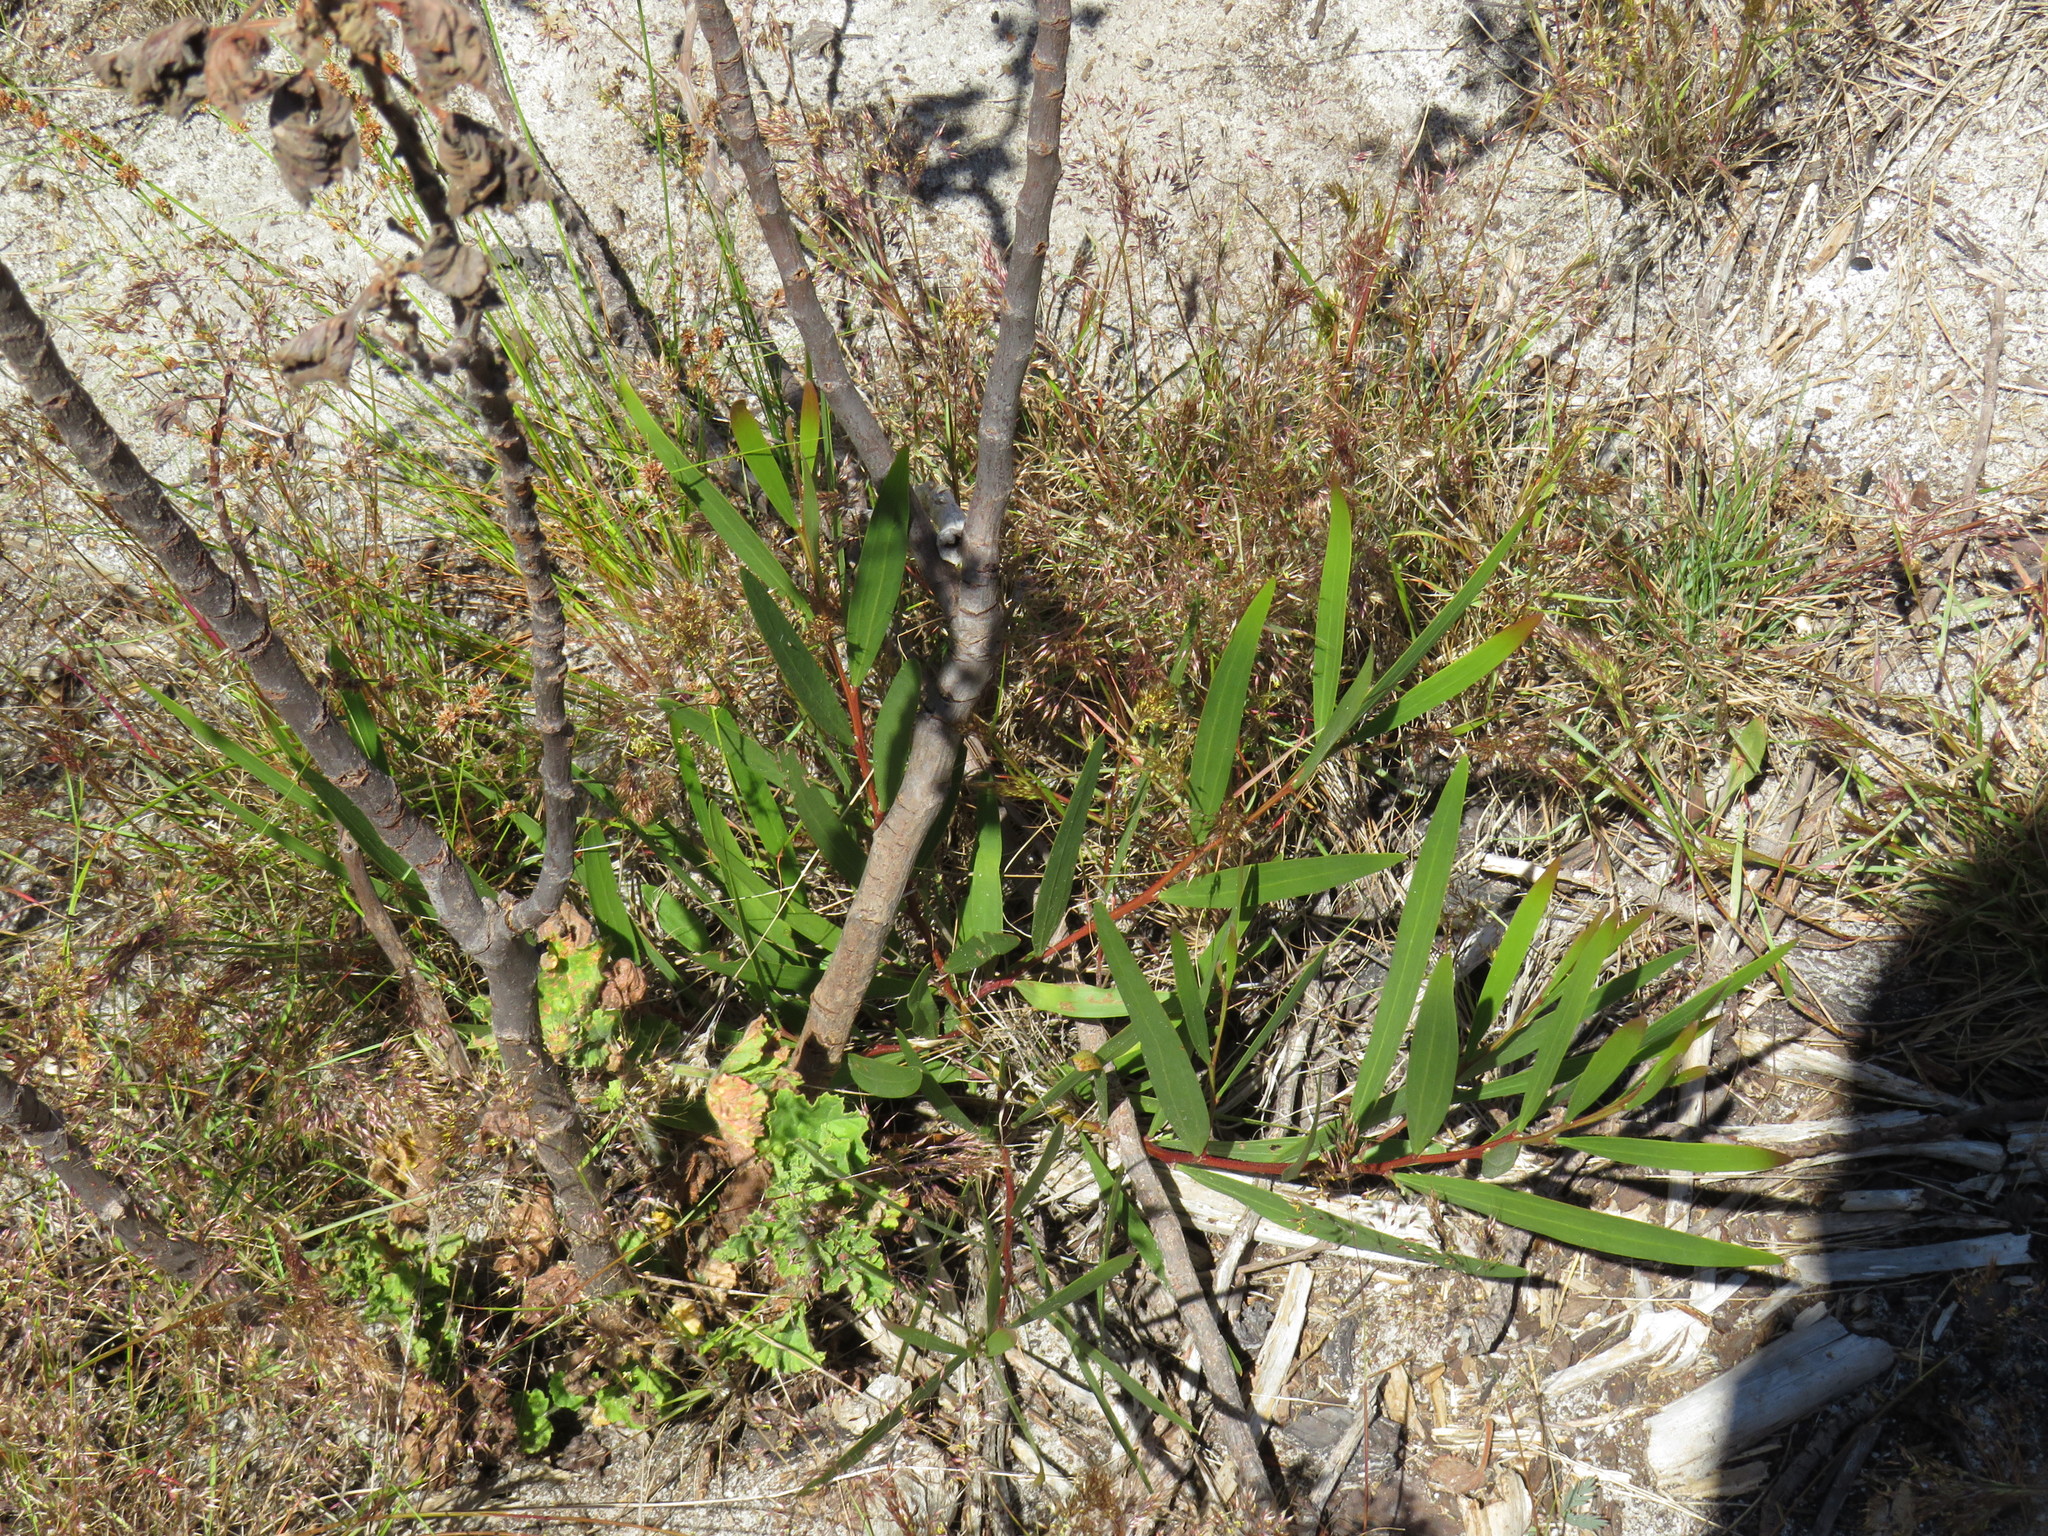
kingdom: Plantae
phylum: Tracheophyta
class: Magnoliopsida
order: Fabales
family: Fabaceae
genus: Acacia
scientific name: Acacia longifolia
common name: Sydney golden wattle
